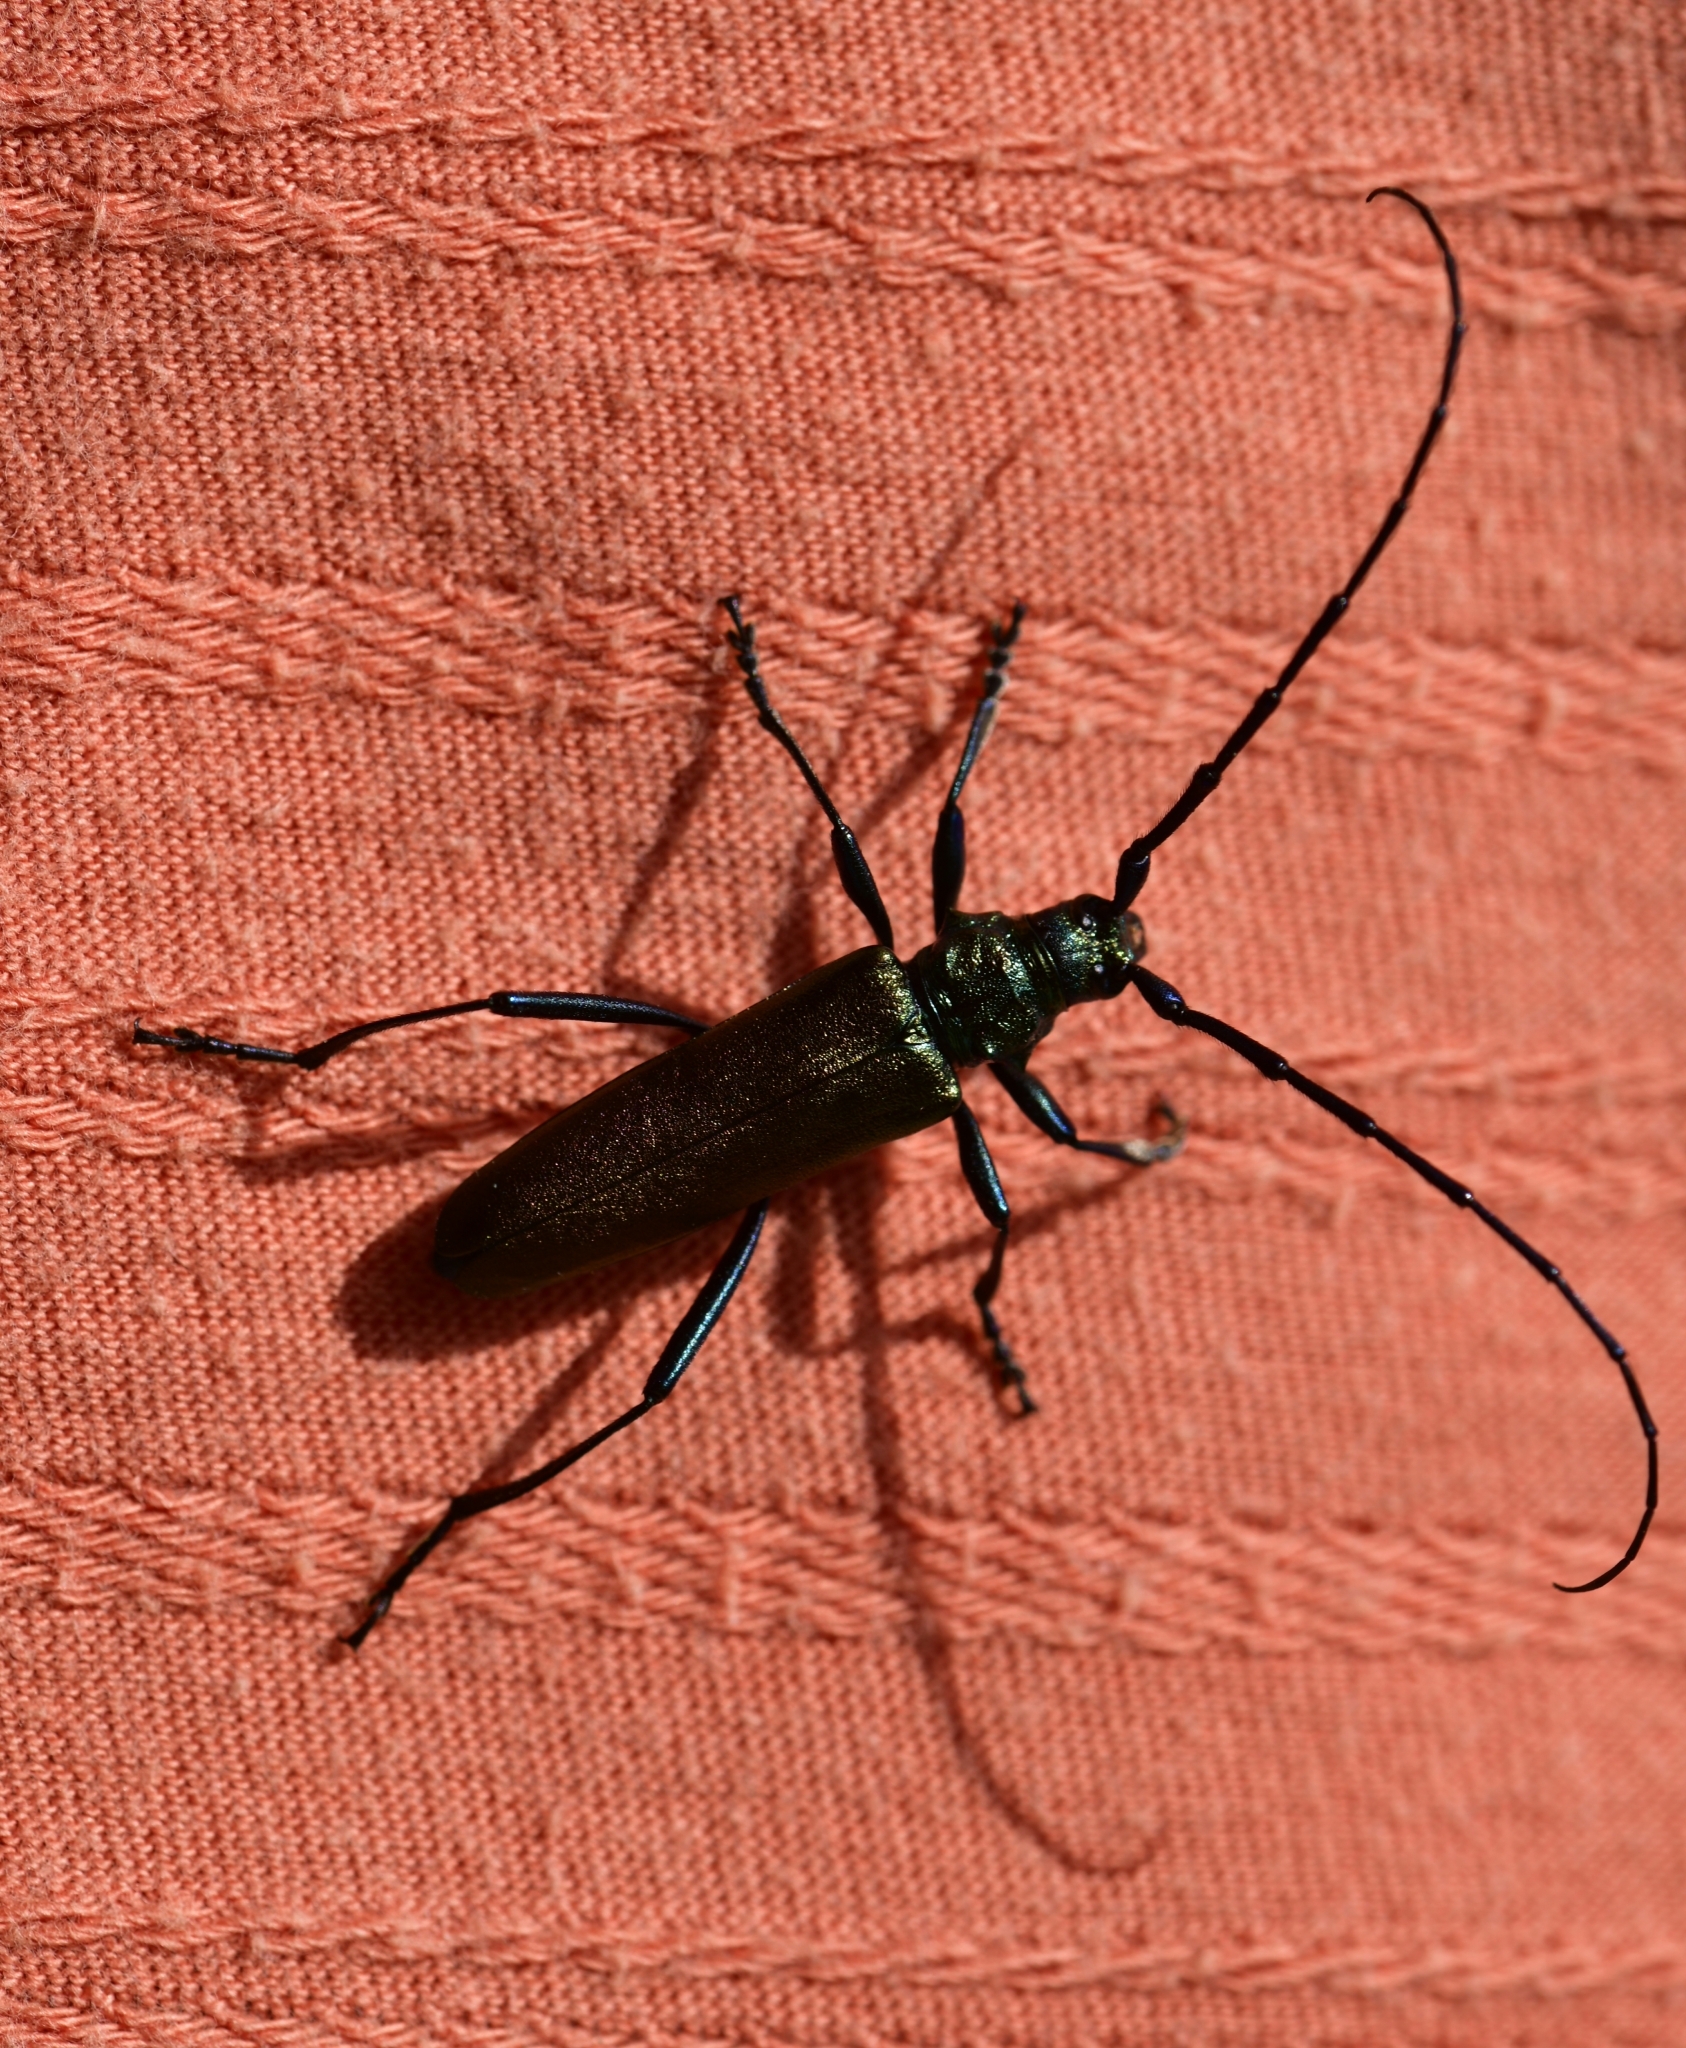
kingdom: Animalia
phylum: Arthropoda
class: Insecta
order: Coleoptera
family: Cerambycidae
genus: Aromia
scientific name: Aromia moschata
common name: Musk beetle
